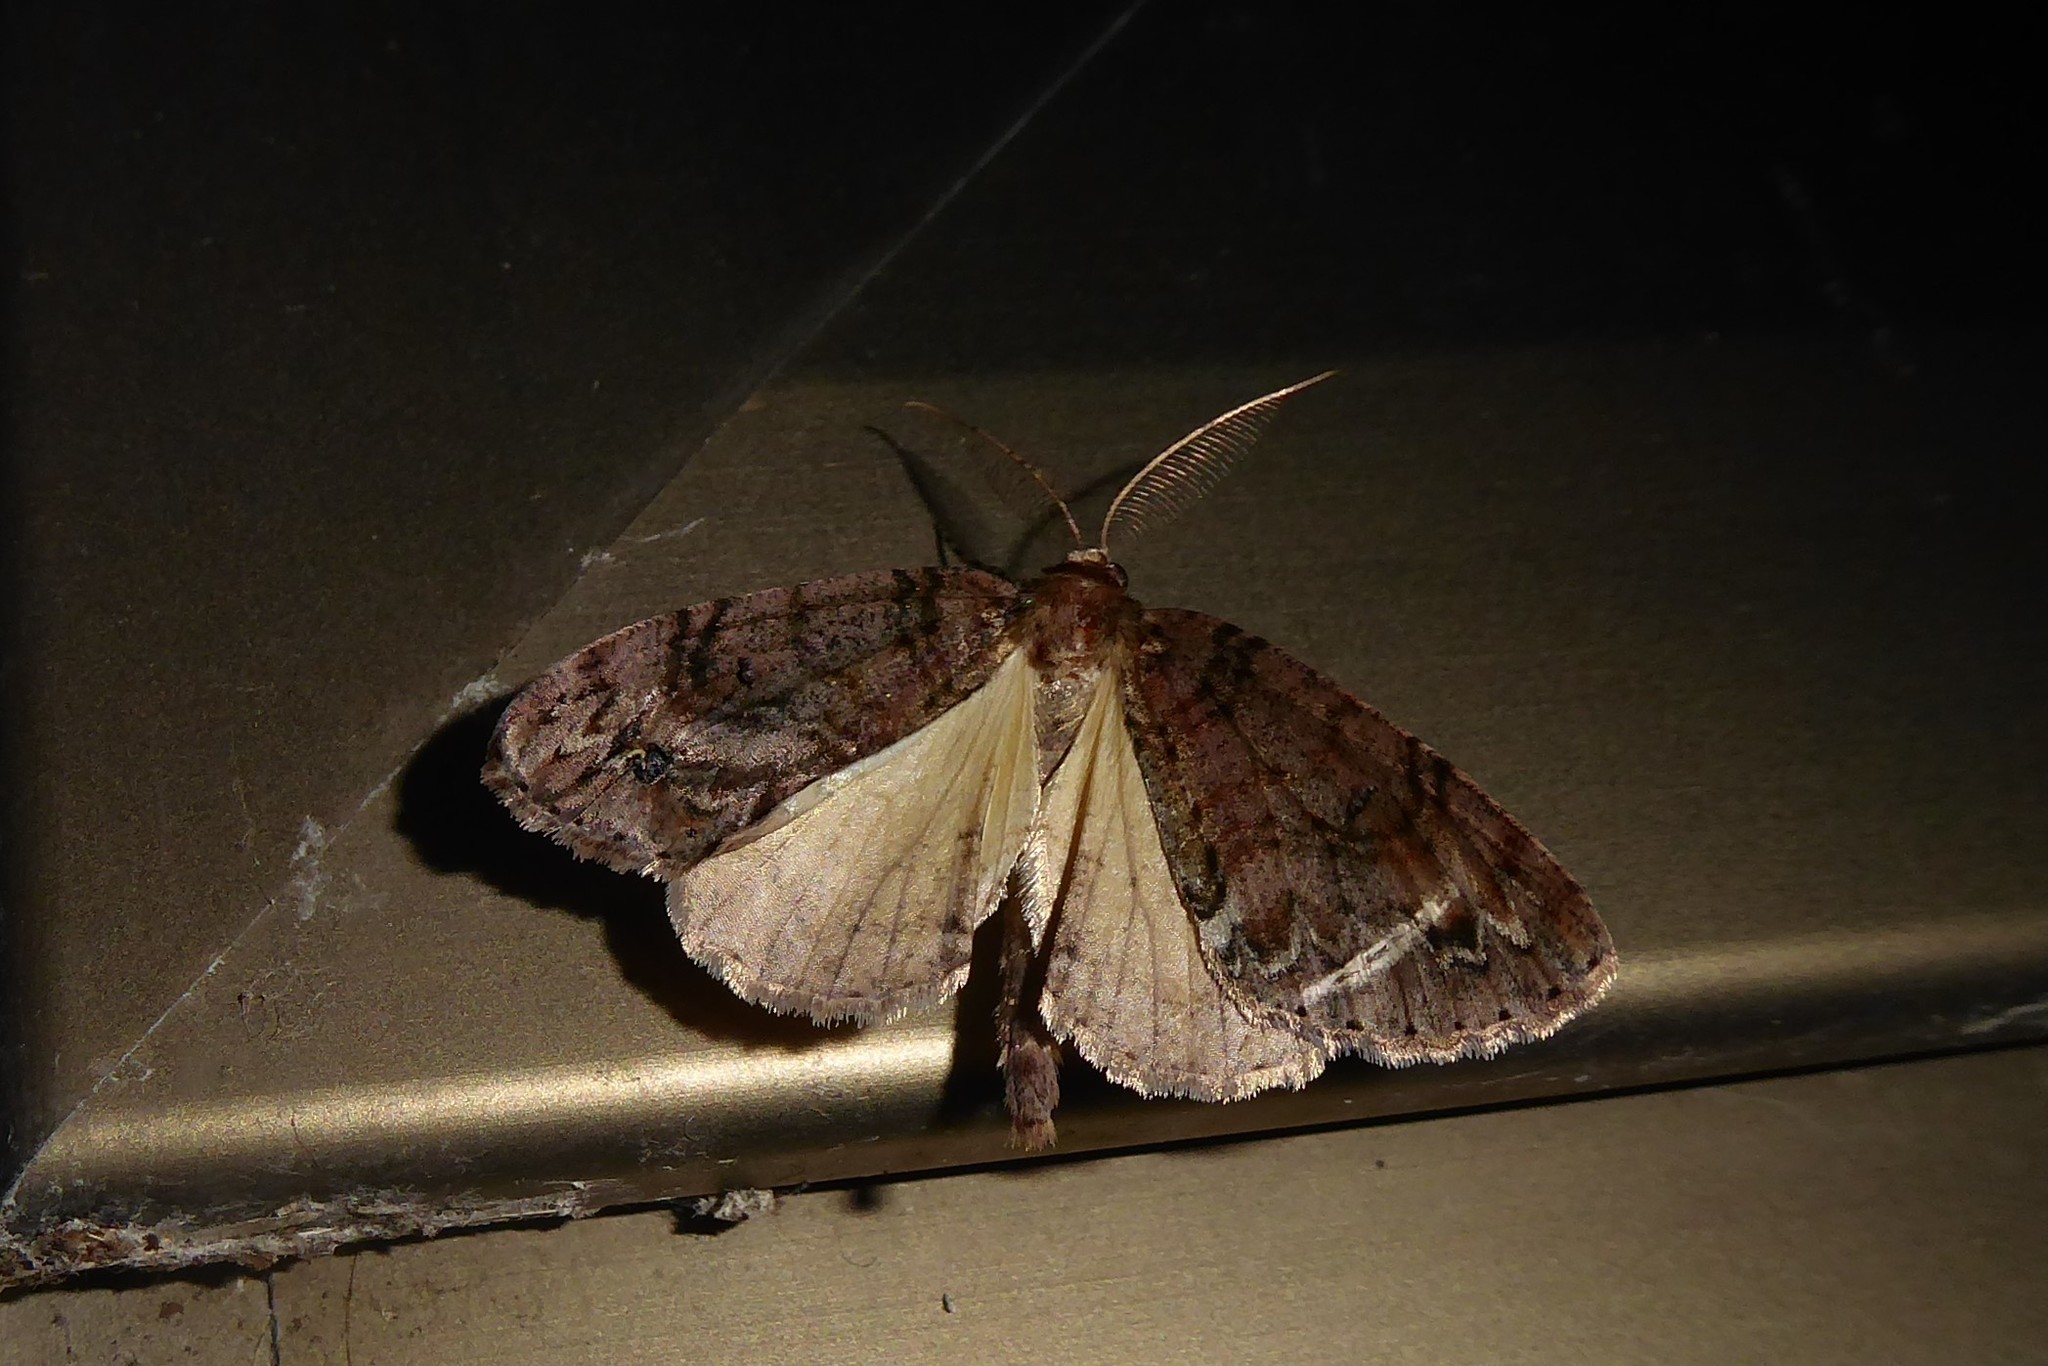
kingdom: Animalia
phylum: Arthropoda
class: Insecta
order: Lepidoptera
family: Geometridae
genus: Pseudocoremia
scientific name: Pseudocoremia suavis
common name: Common forest looper
